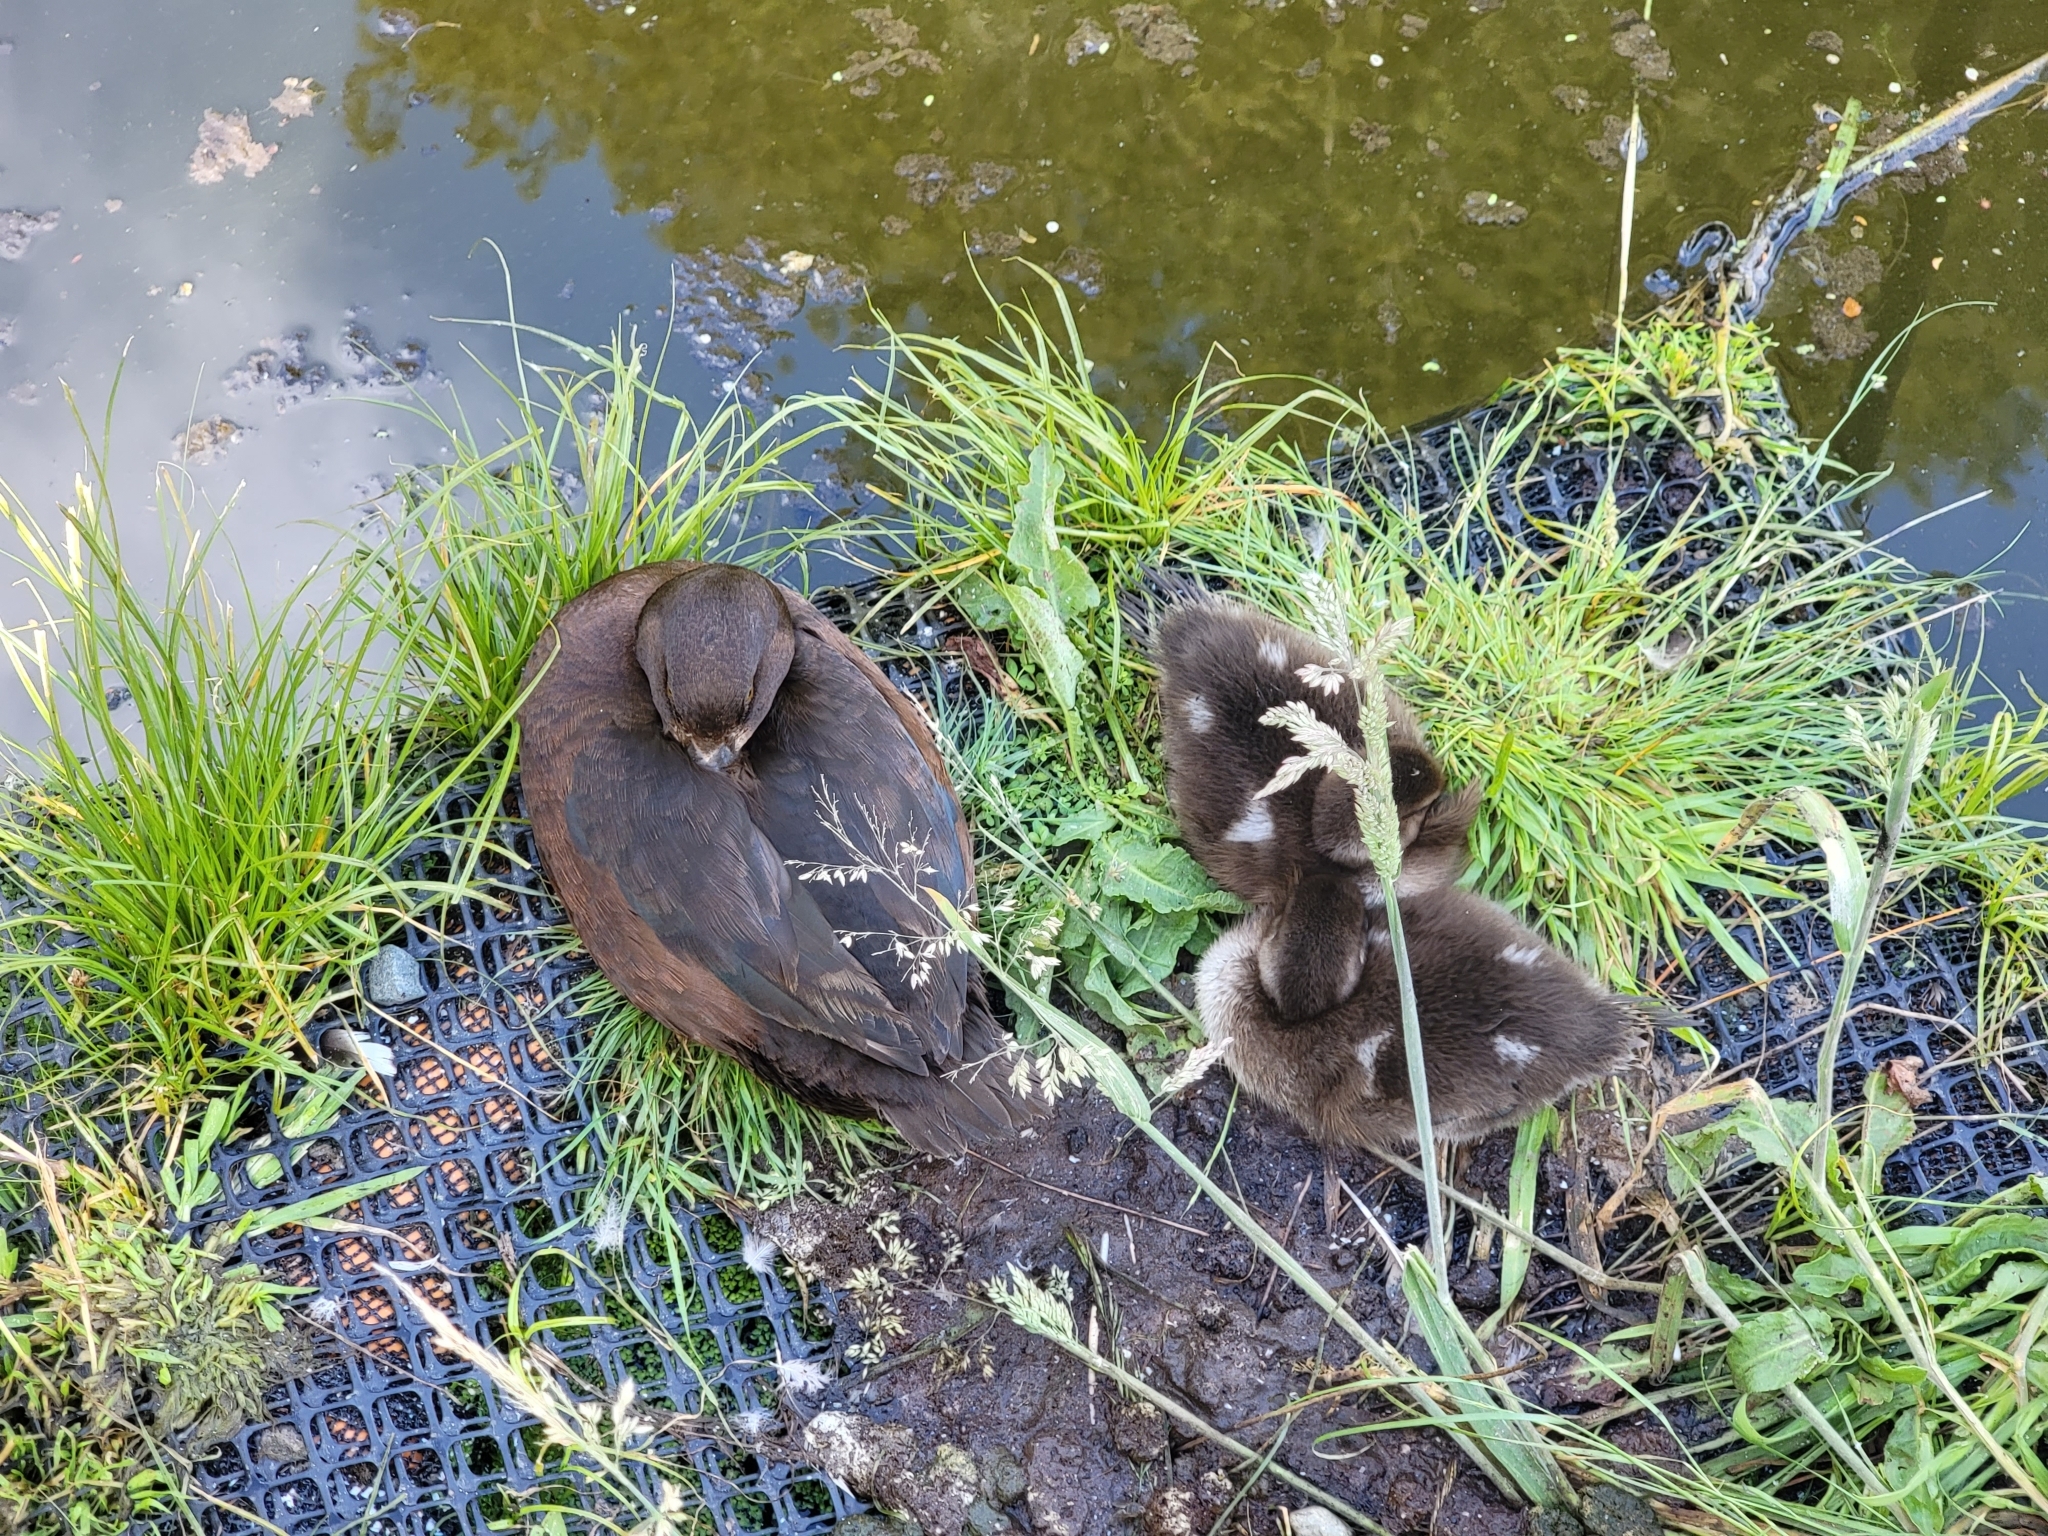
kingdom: Animalia
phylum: Chordata
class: Aves
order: Anseriformes
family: Anatidae
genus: Aythya
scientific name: Aythya novaeseelandiae
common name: New zealand scaup
